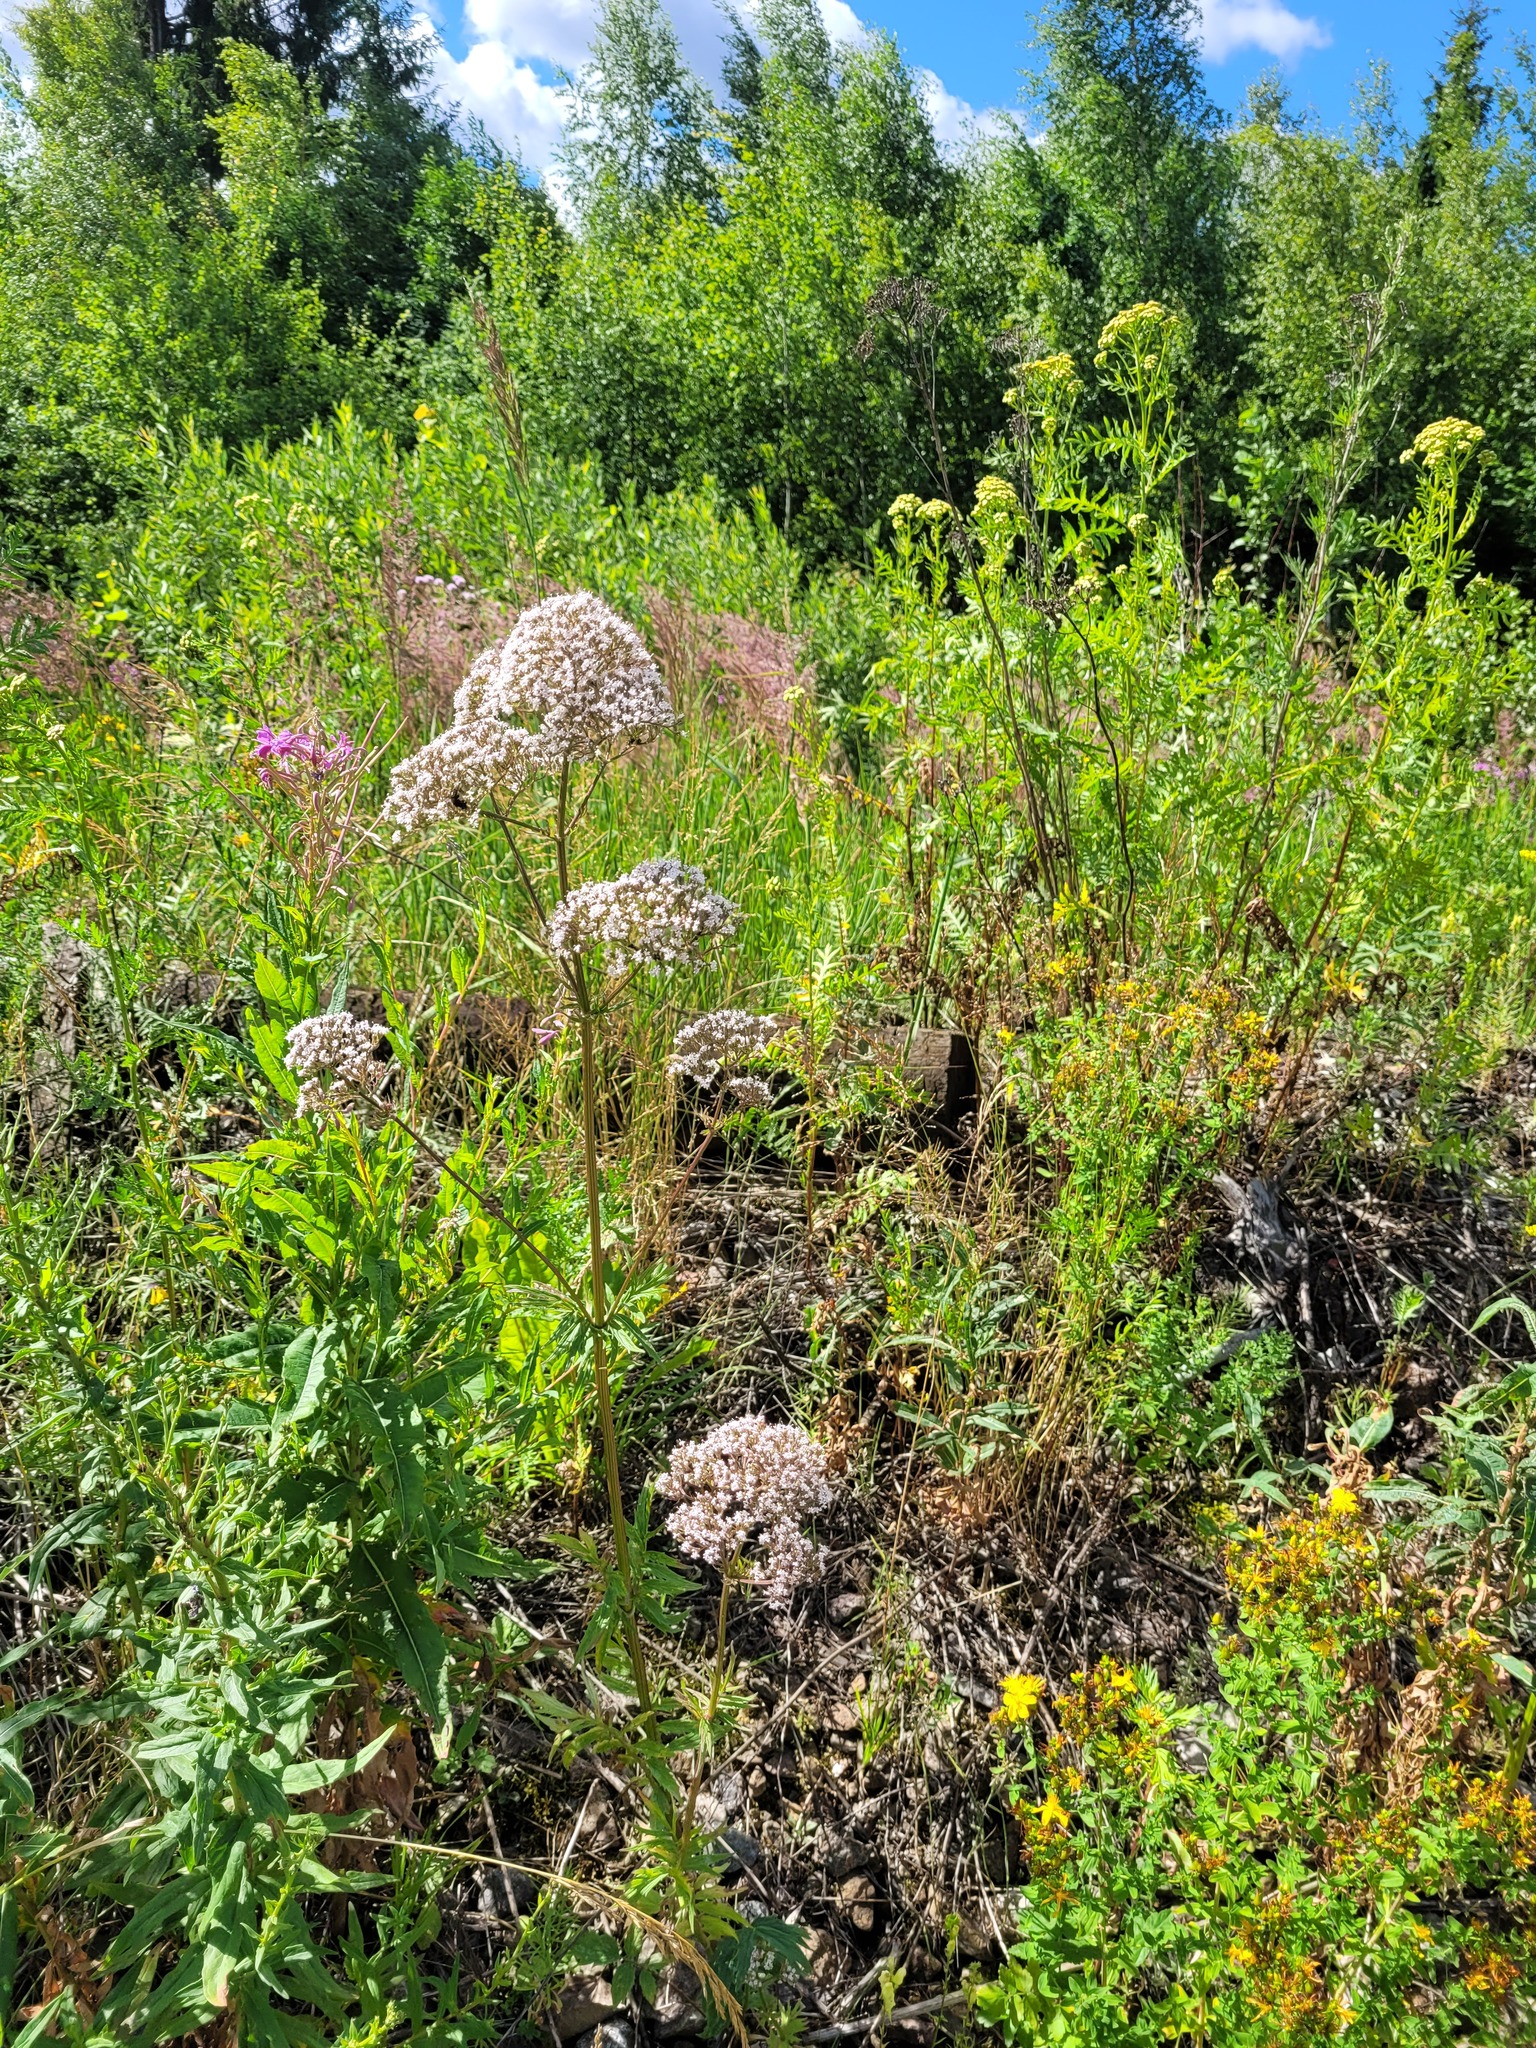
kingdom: Plantae
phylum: Tracheophyta
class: Magnoliopsida
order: Dipsacales
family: Caprifoliaceae
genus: Valeriana
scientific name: Valeriana officinalis
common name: Common valerian
